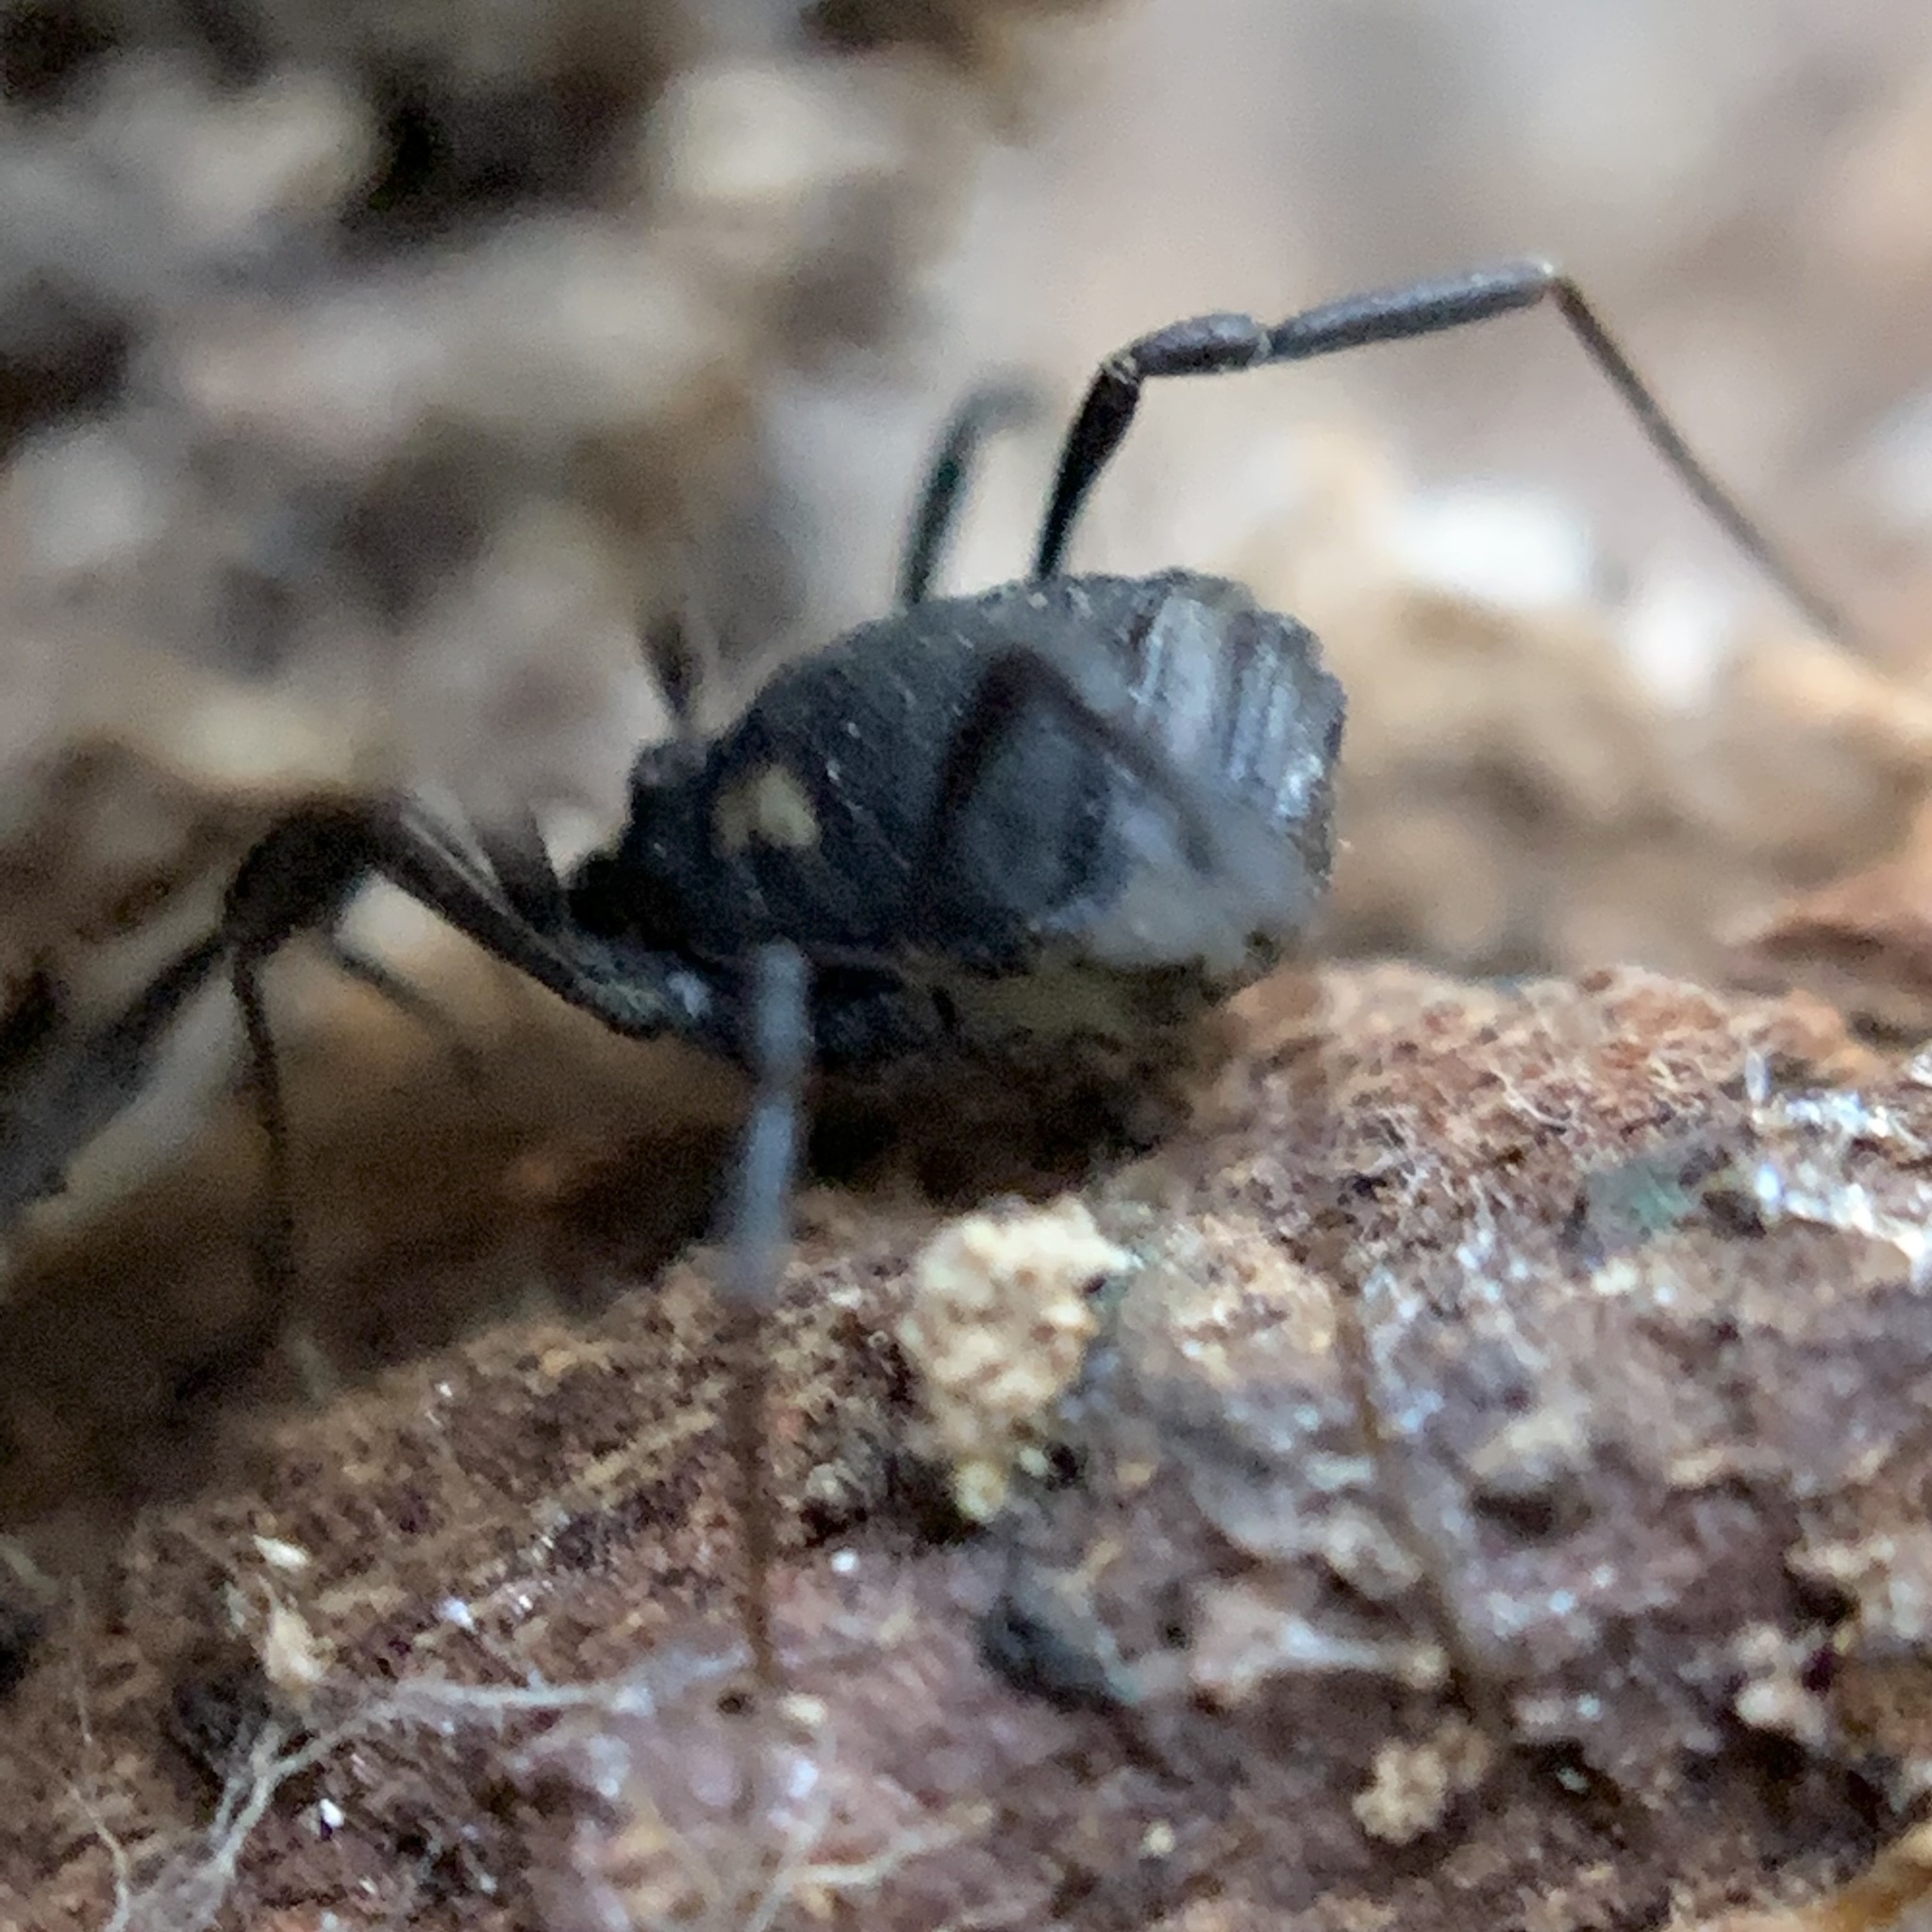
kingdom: Animalia
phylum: Arthropoda
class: Arachnida
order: Opiliones
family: Nemastomatidae
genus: Nemastoma
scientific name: Nemastoma bimaculatum
